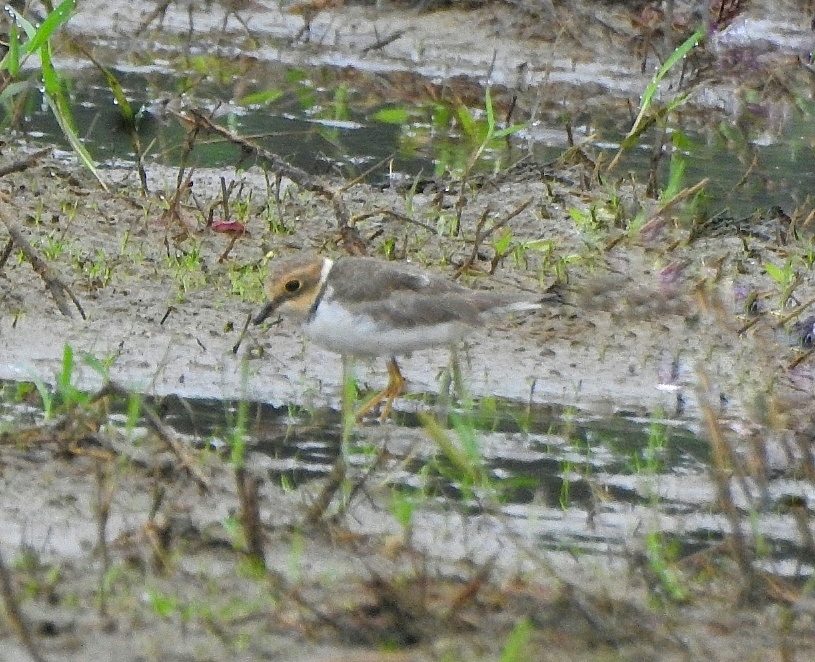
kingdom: Animalia
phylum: Chordata
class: Aves
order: Charadriiformes
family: Charadriidae
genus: Charadrius
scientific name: Charadrius dubius
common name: Little ringed plover
